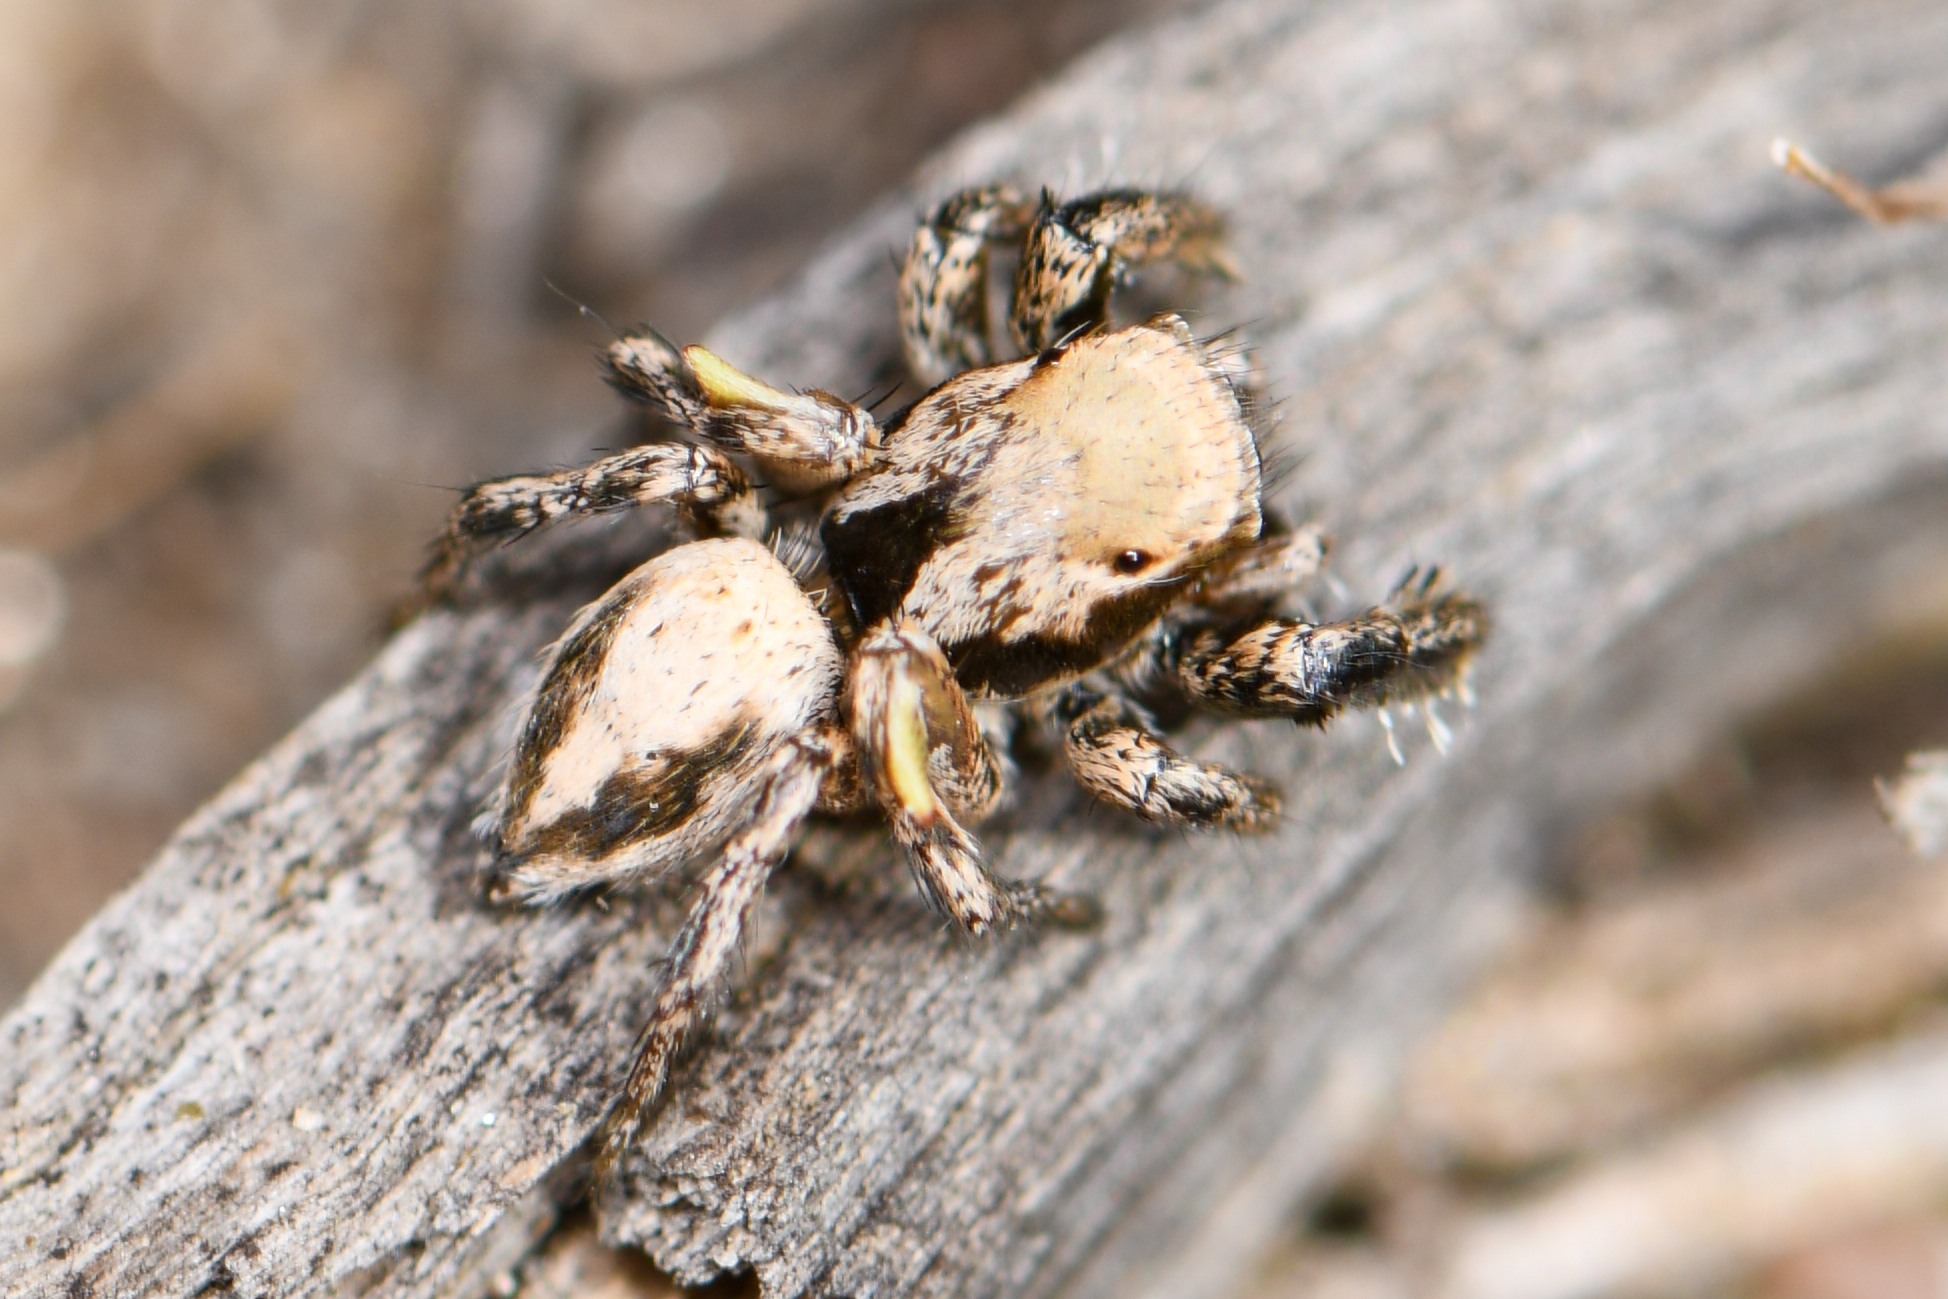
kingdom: Animalia
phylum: Arthropoda
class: Arachnida
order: Araneae
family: Salticidae
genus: Habronattus
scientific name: Habronattus californicus
